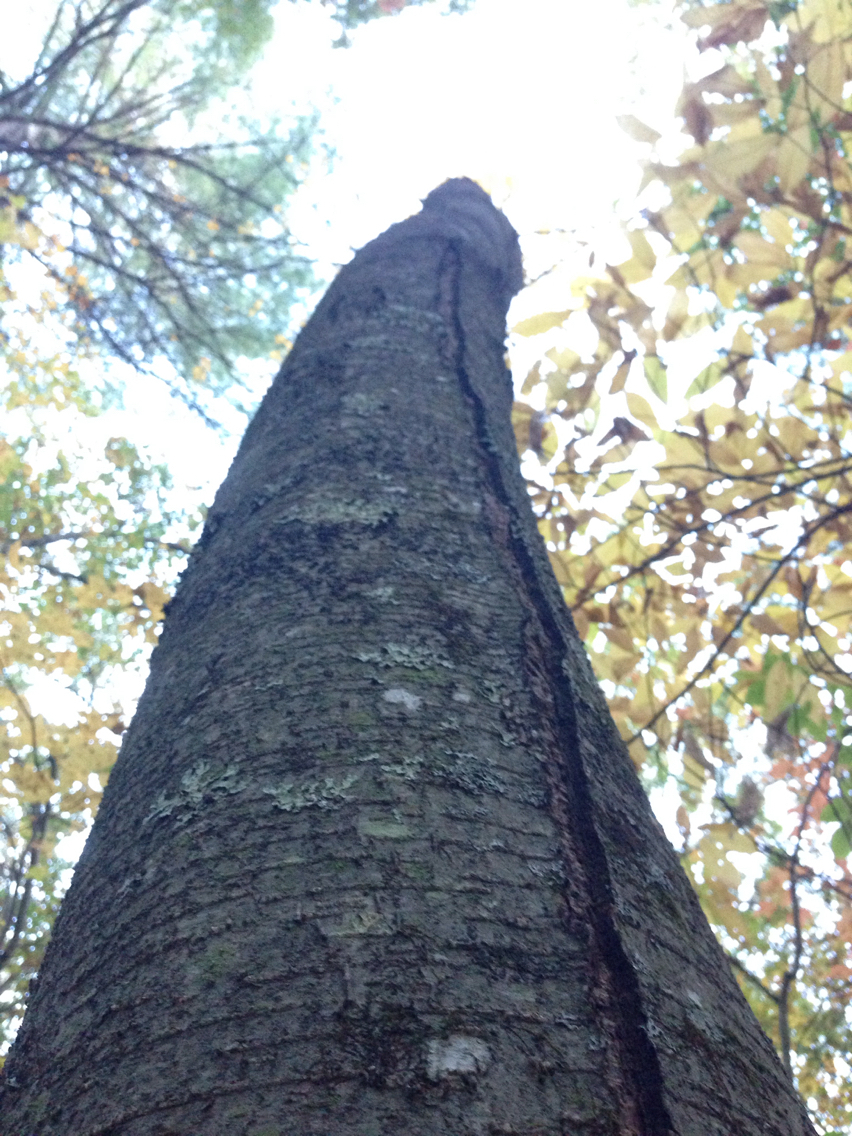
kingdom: Plantae
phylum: Tracheophyta
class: Magnoliopsida
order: Fagales
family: Betulaceae
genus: Betula
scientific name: Betula lenta
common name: Black birch
